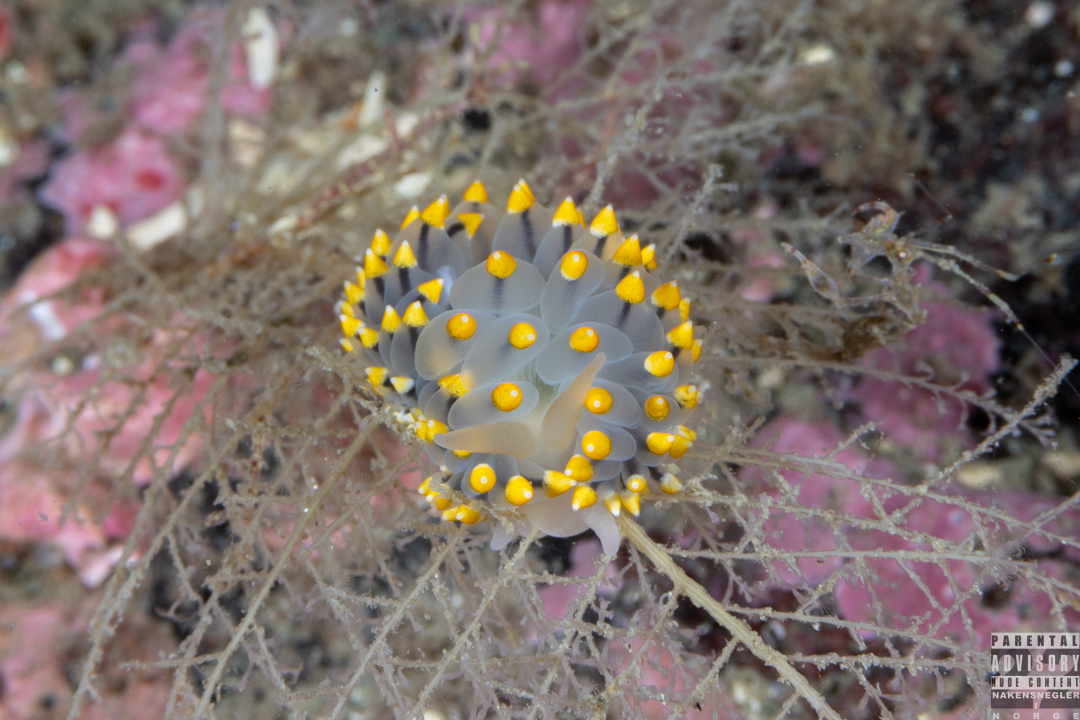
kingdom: Animalia
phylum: Mollusca
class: Gastropoda
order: Nudibranchia
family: Eubranchidae
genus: Eubranchus
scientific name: Eubranchus tricolor
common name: Painted balloon aeolis
